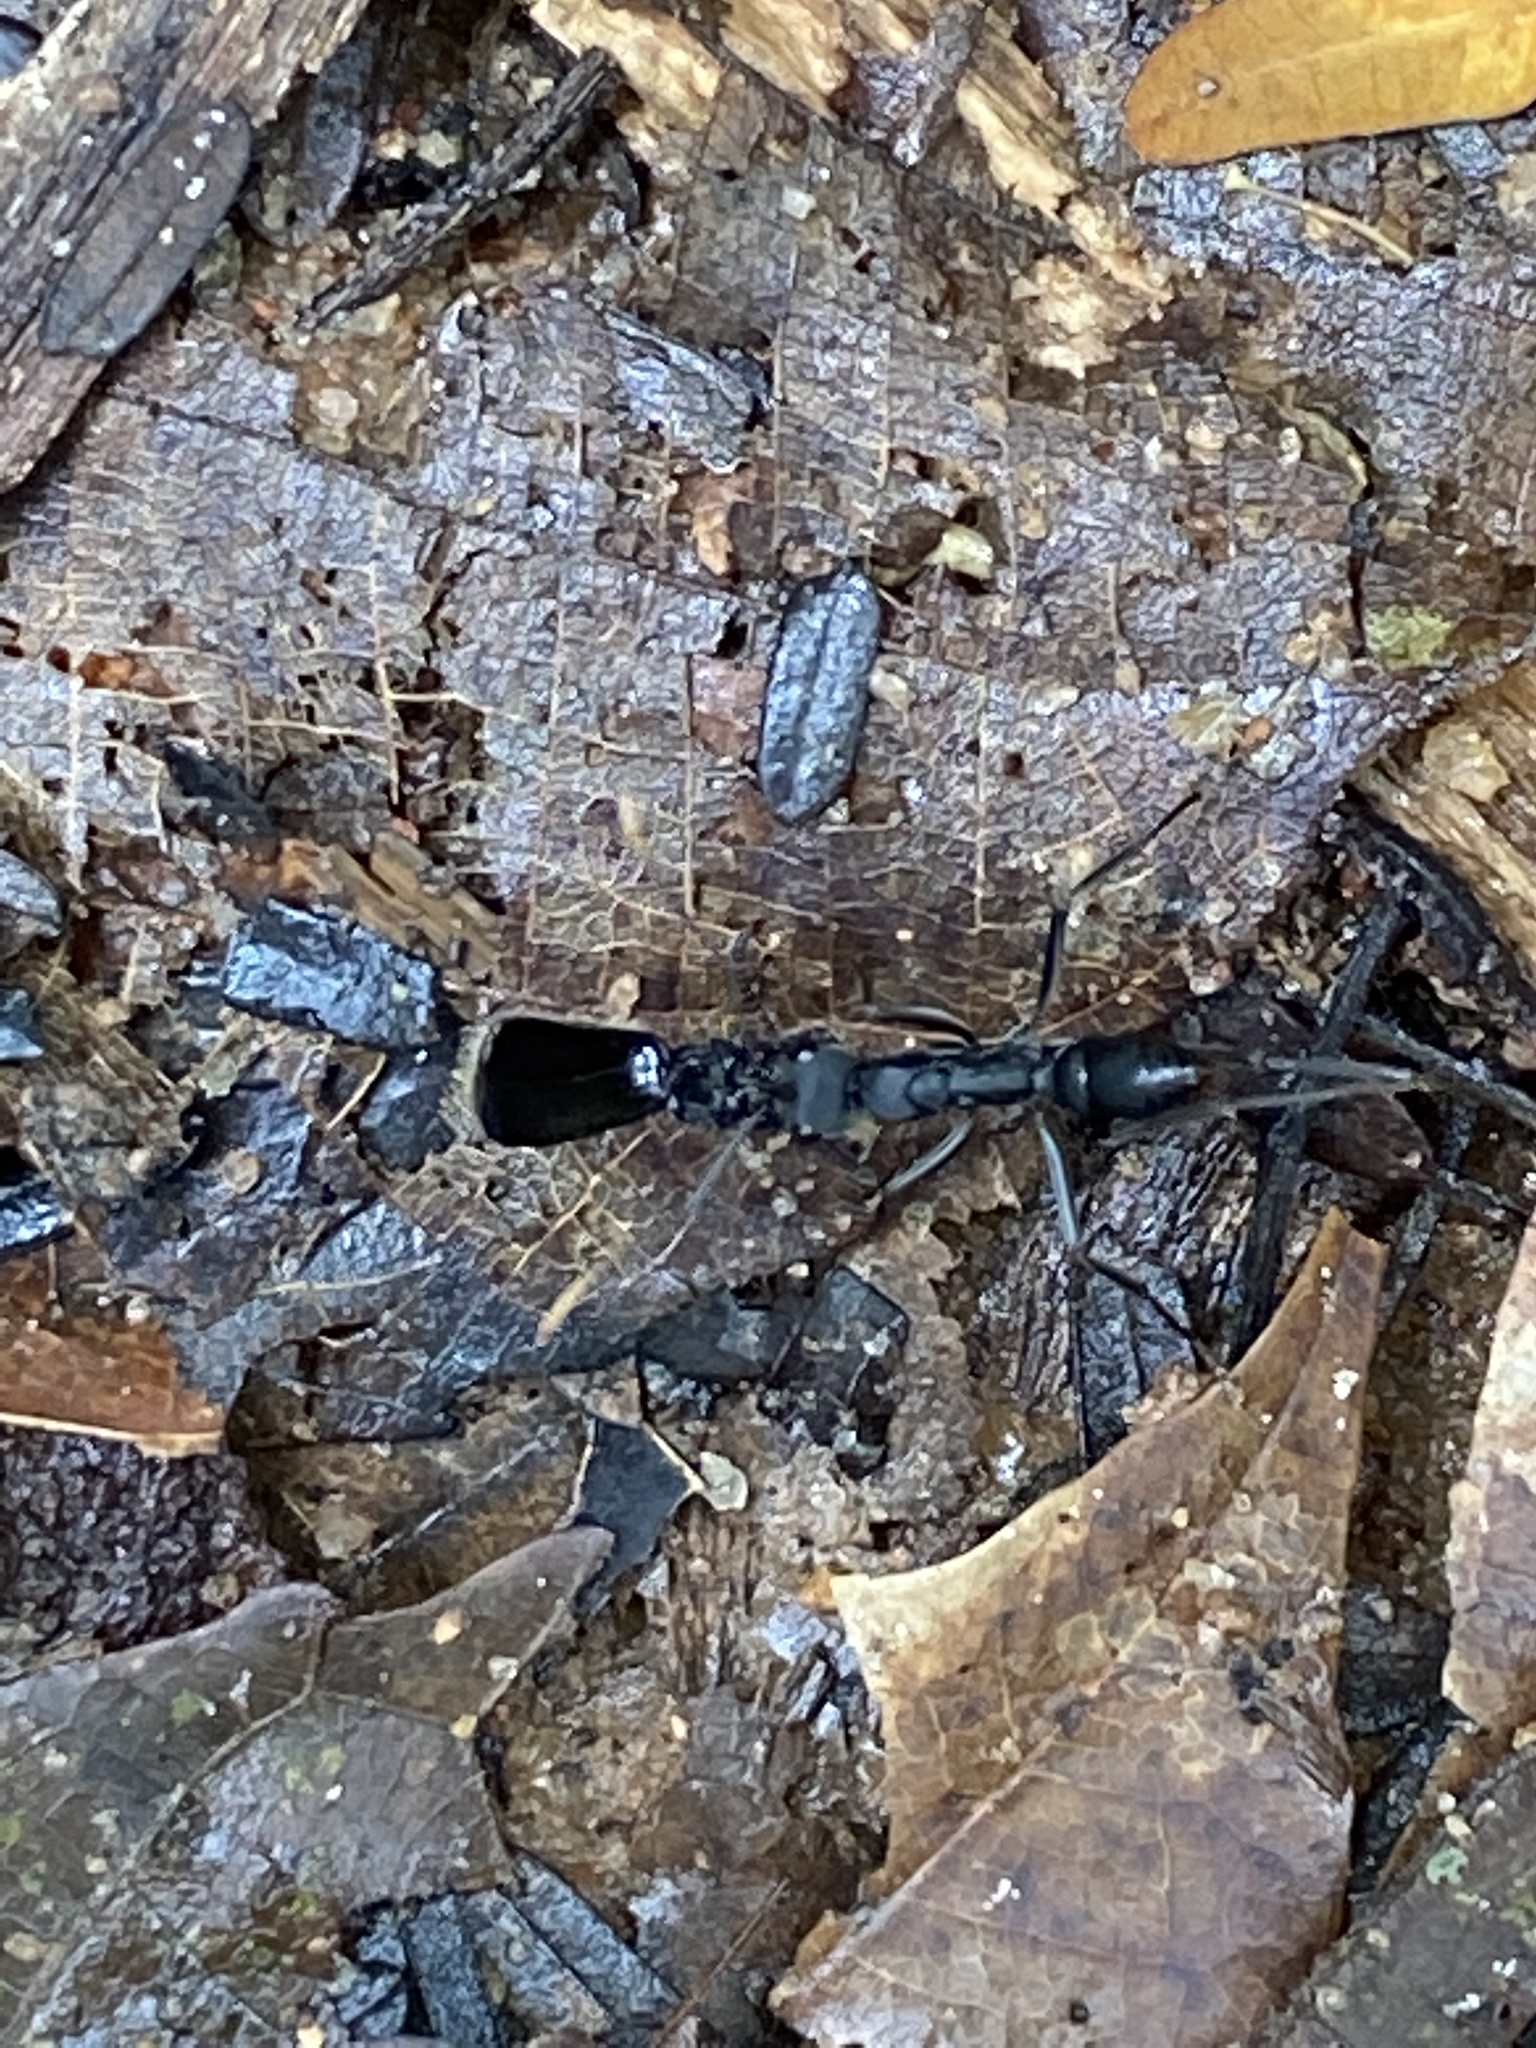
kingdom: Animalia
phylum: Arthropoda
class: Insecta
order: Hymenoptera
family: Formicidae
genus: Pachycondyla
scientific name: Pachycondyla apicalis
